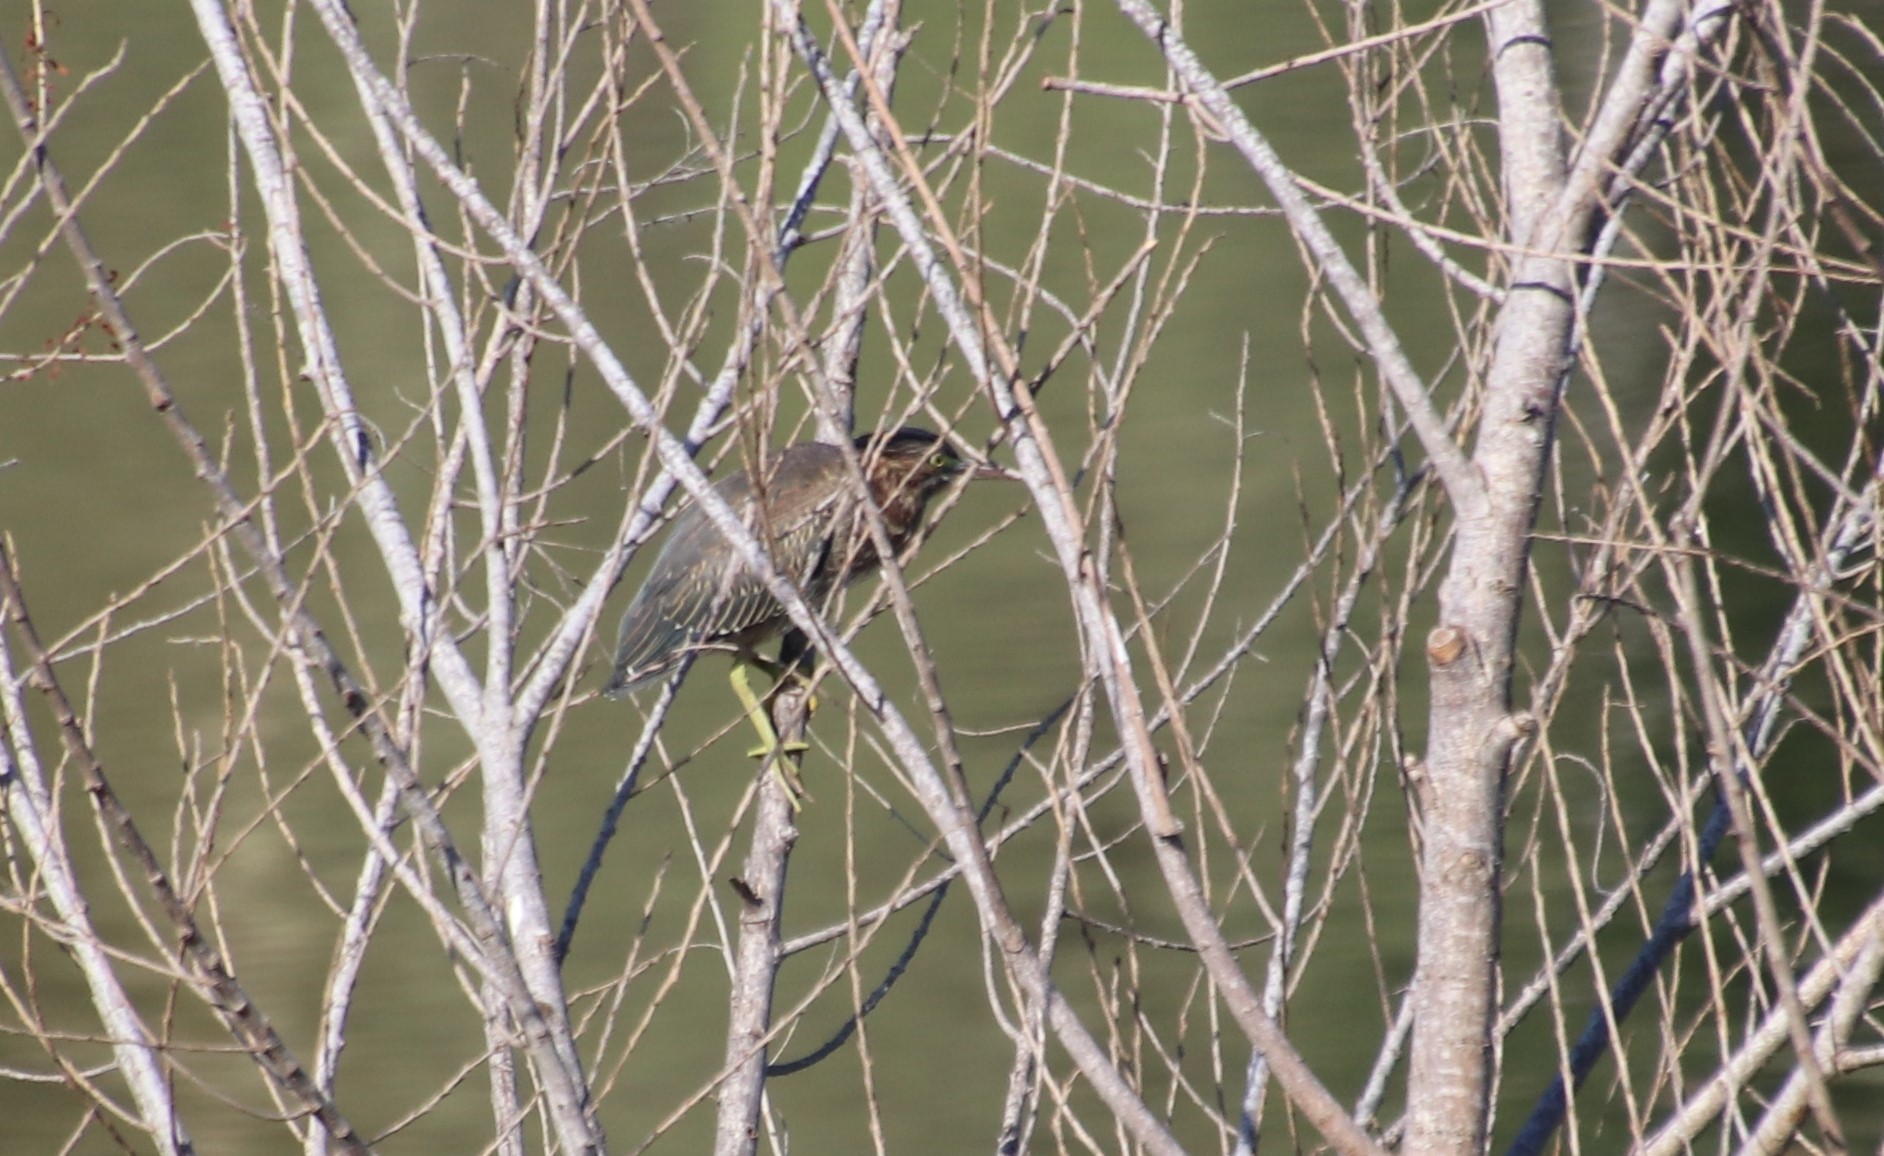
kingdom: Animalia
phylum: Chordata
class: Aves
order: Pelecaniformes
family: Ardeidae
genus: Butorides
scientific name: Butorides virescens
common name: Green heron
